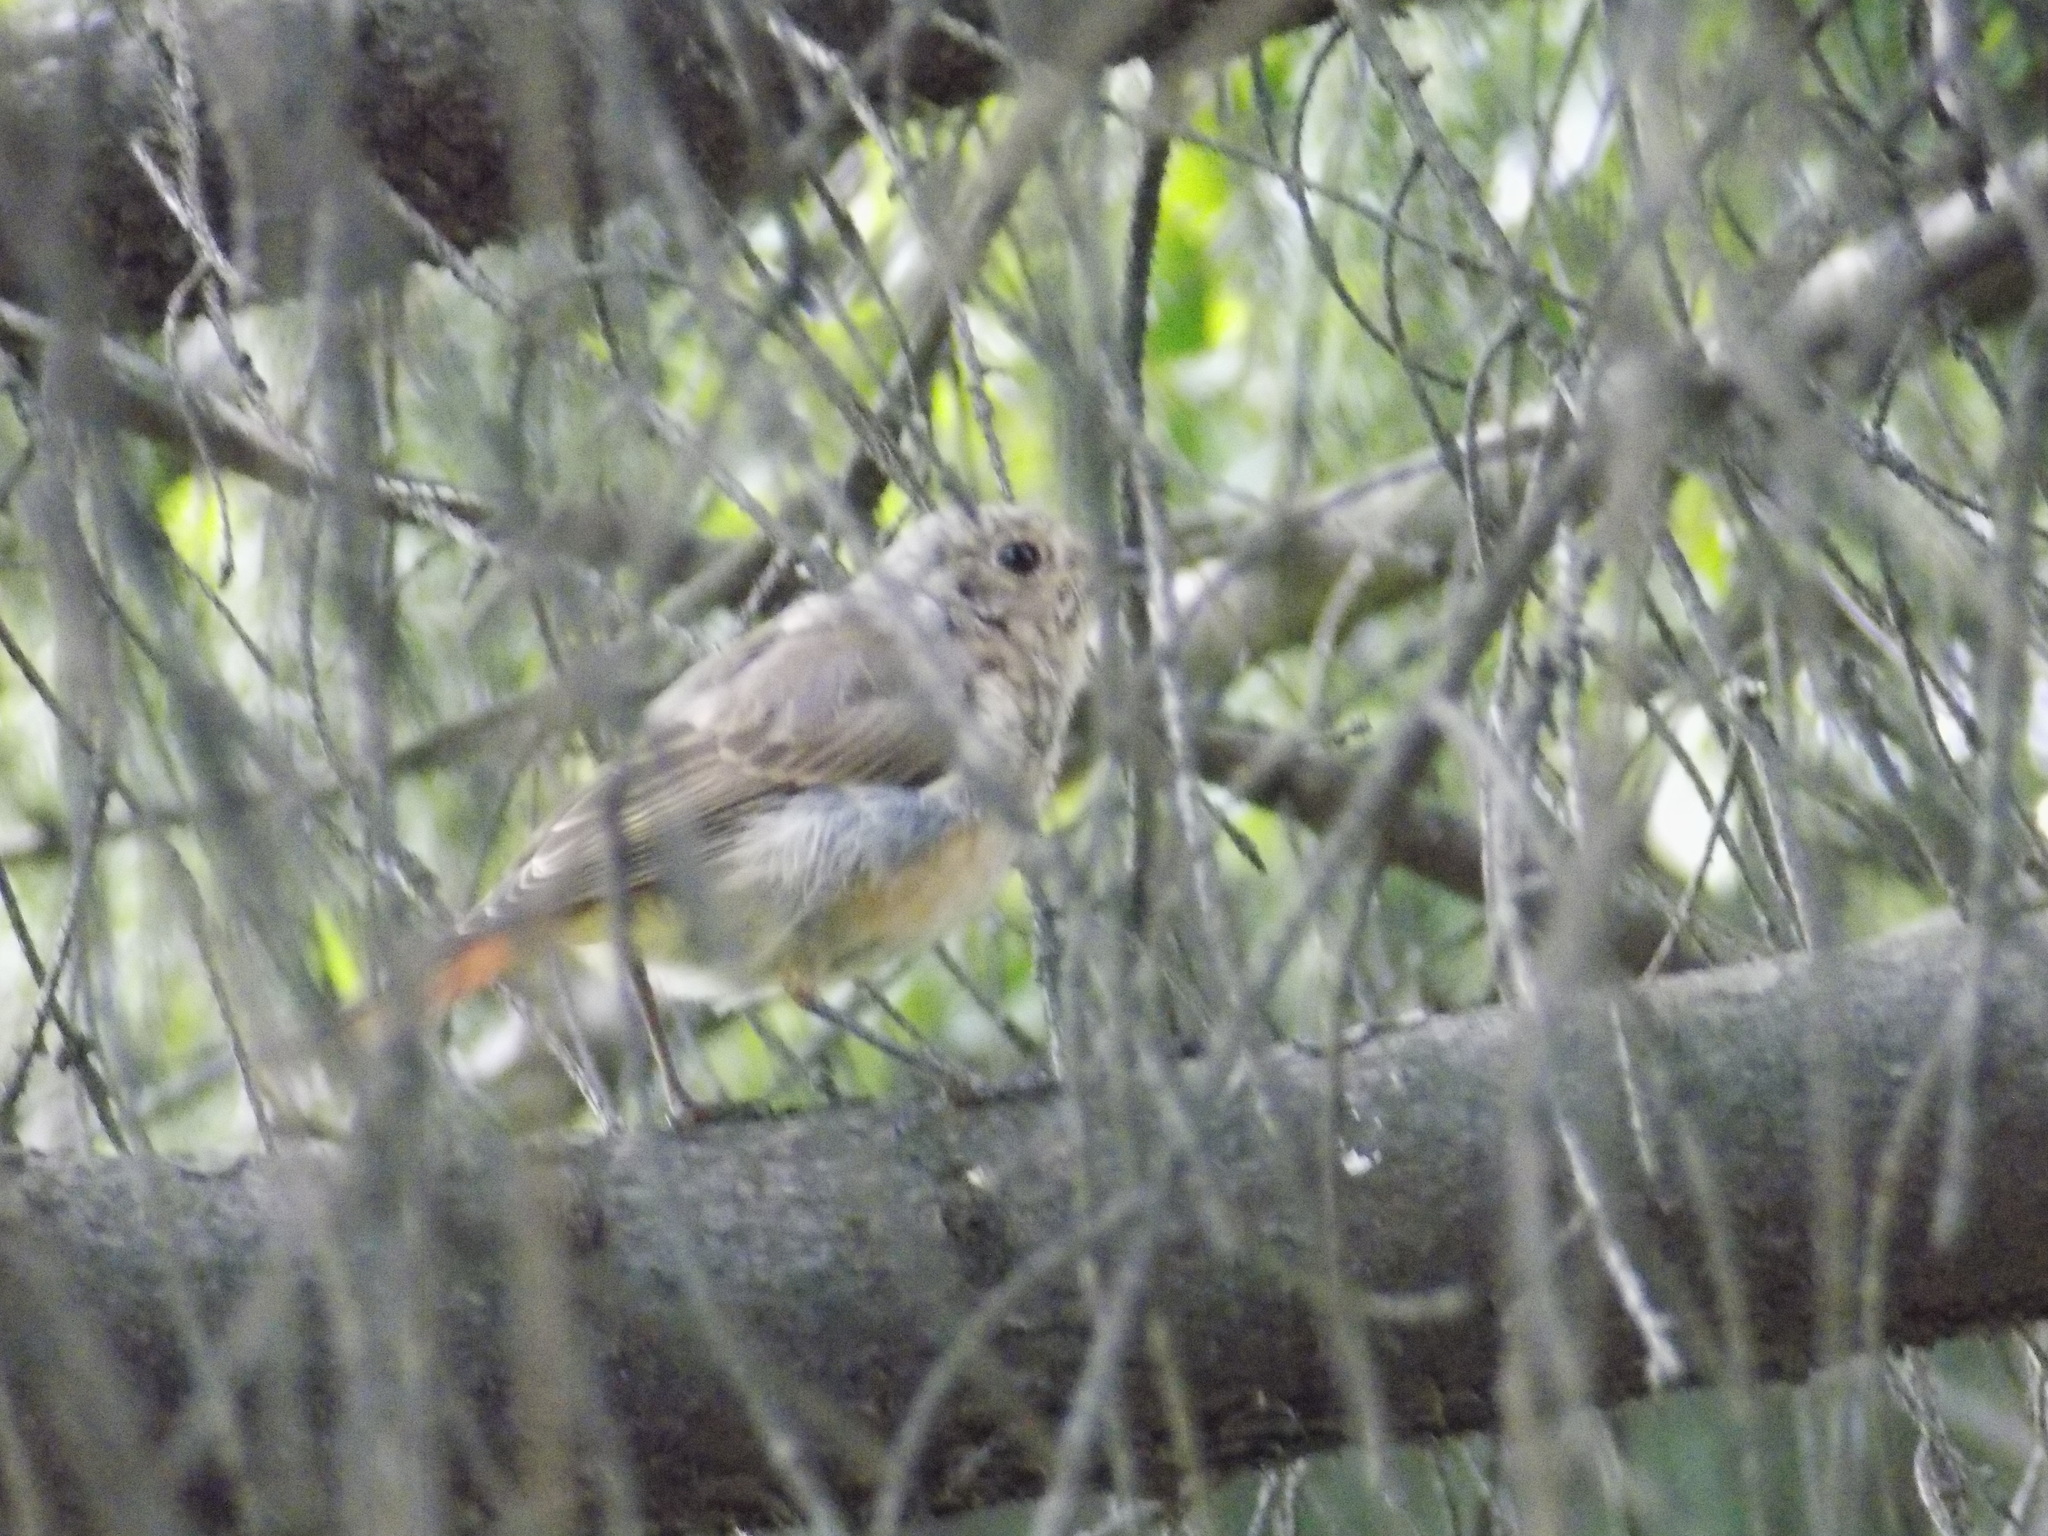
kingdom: Animalia
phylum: Chordata
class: Aves
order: Passeriformes
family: Muscicapidae
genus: Phoenicurus
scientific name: Phoenicurus phoenicurus
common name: Common redstart
